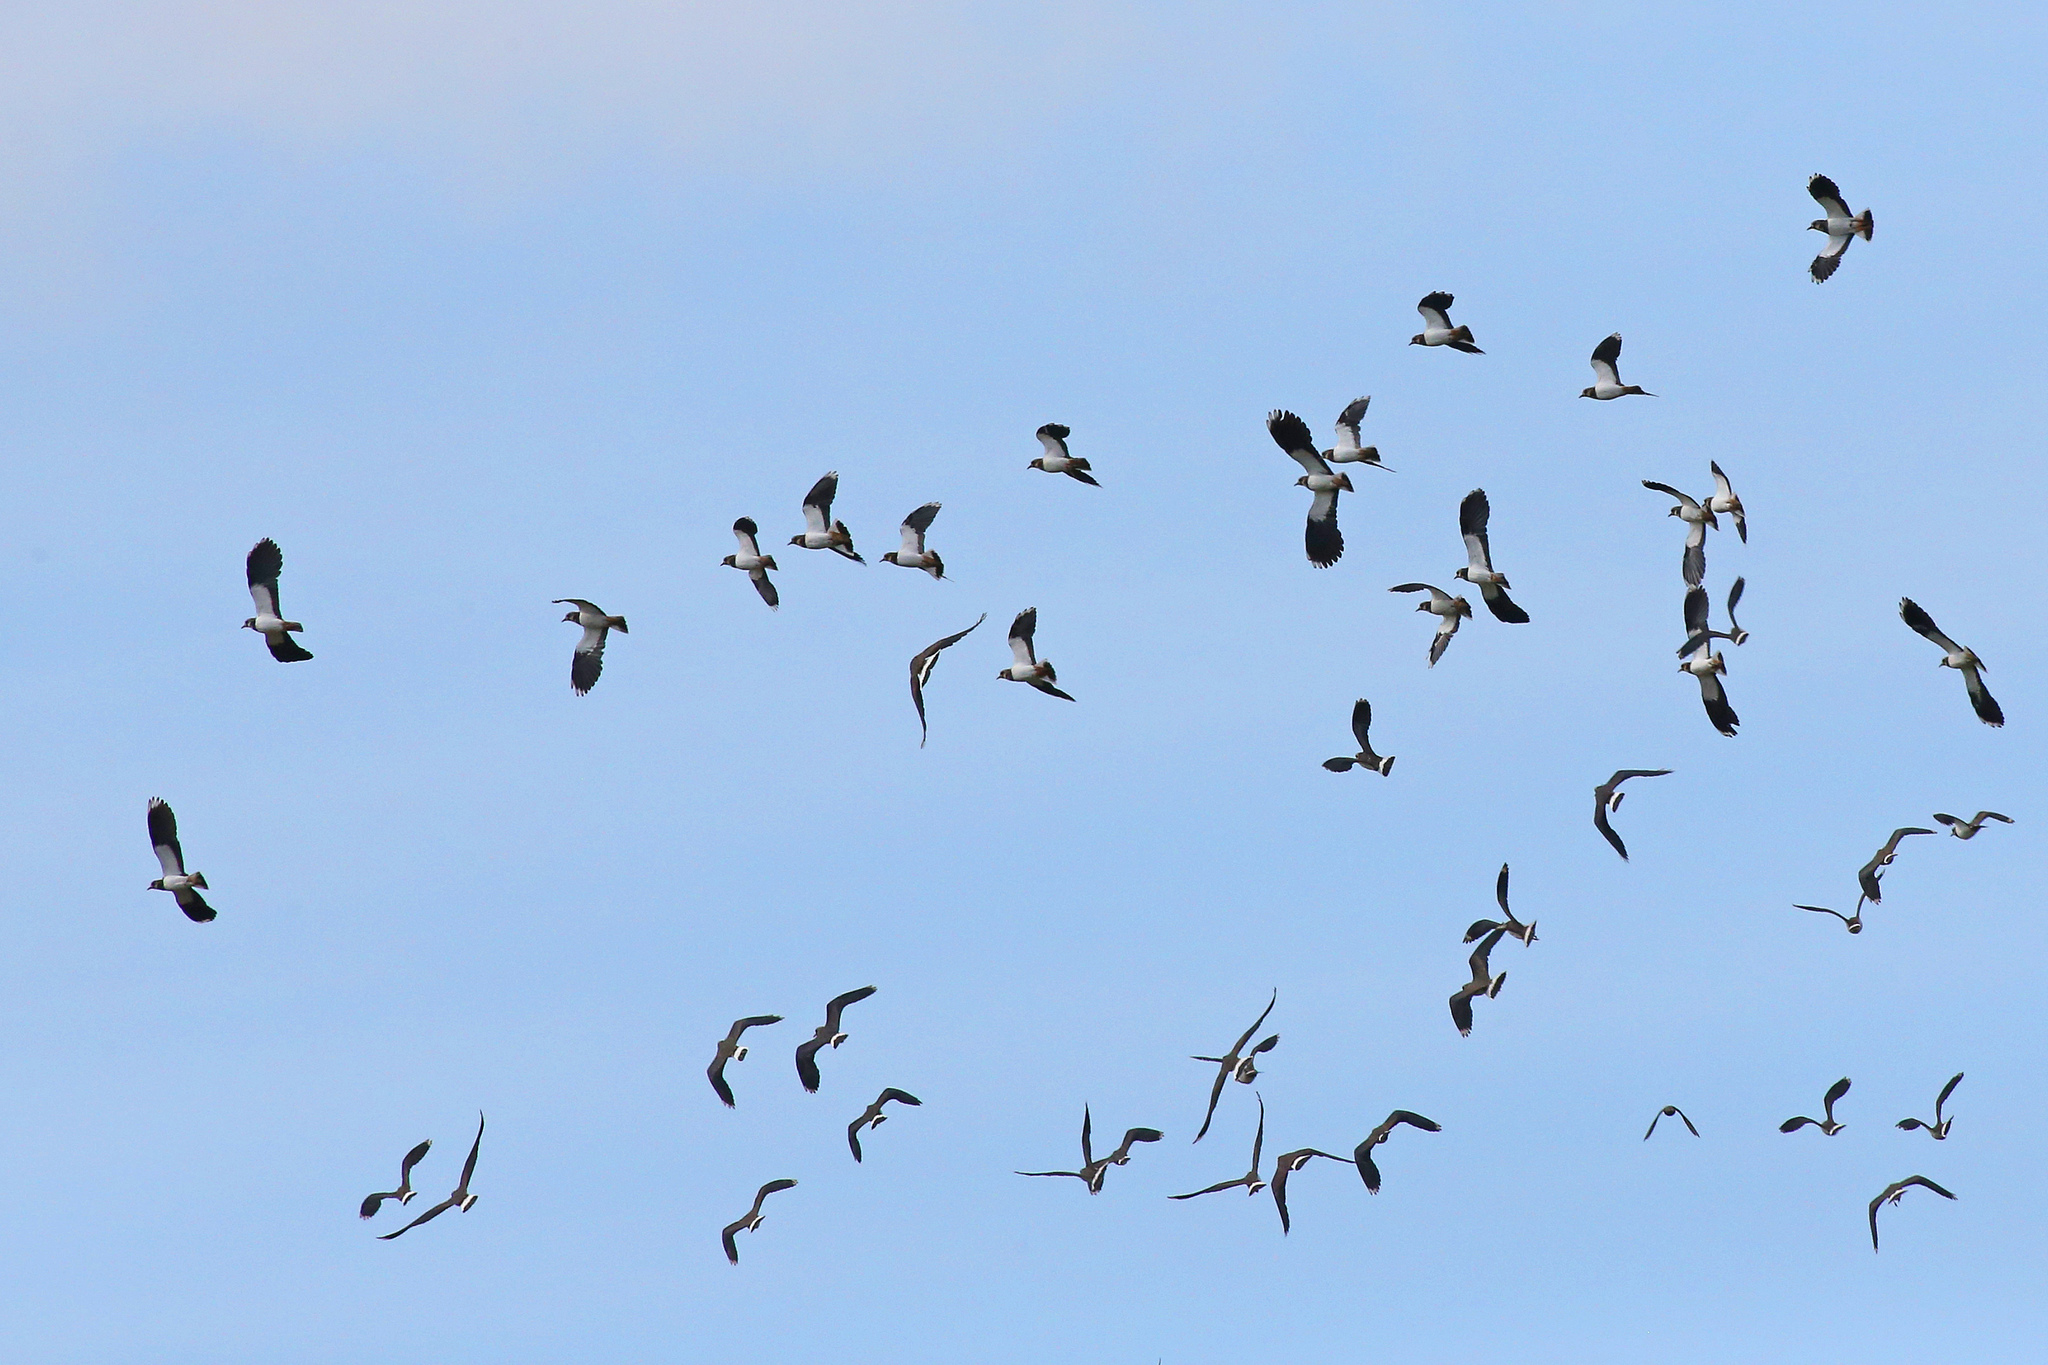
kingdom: Animalia
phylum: Chordata
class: Aves
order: Charadriiformes
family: Charadriidae
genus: Vanellus
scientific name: Vanellus vanellus
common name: Northern lapwing
